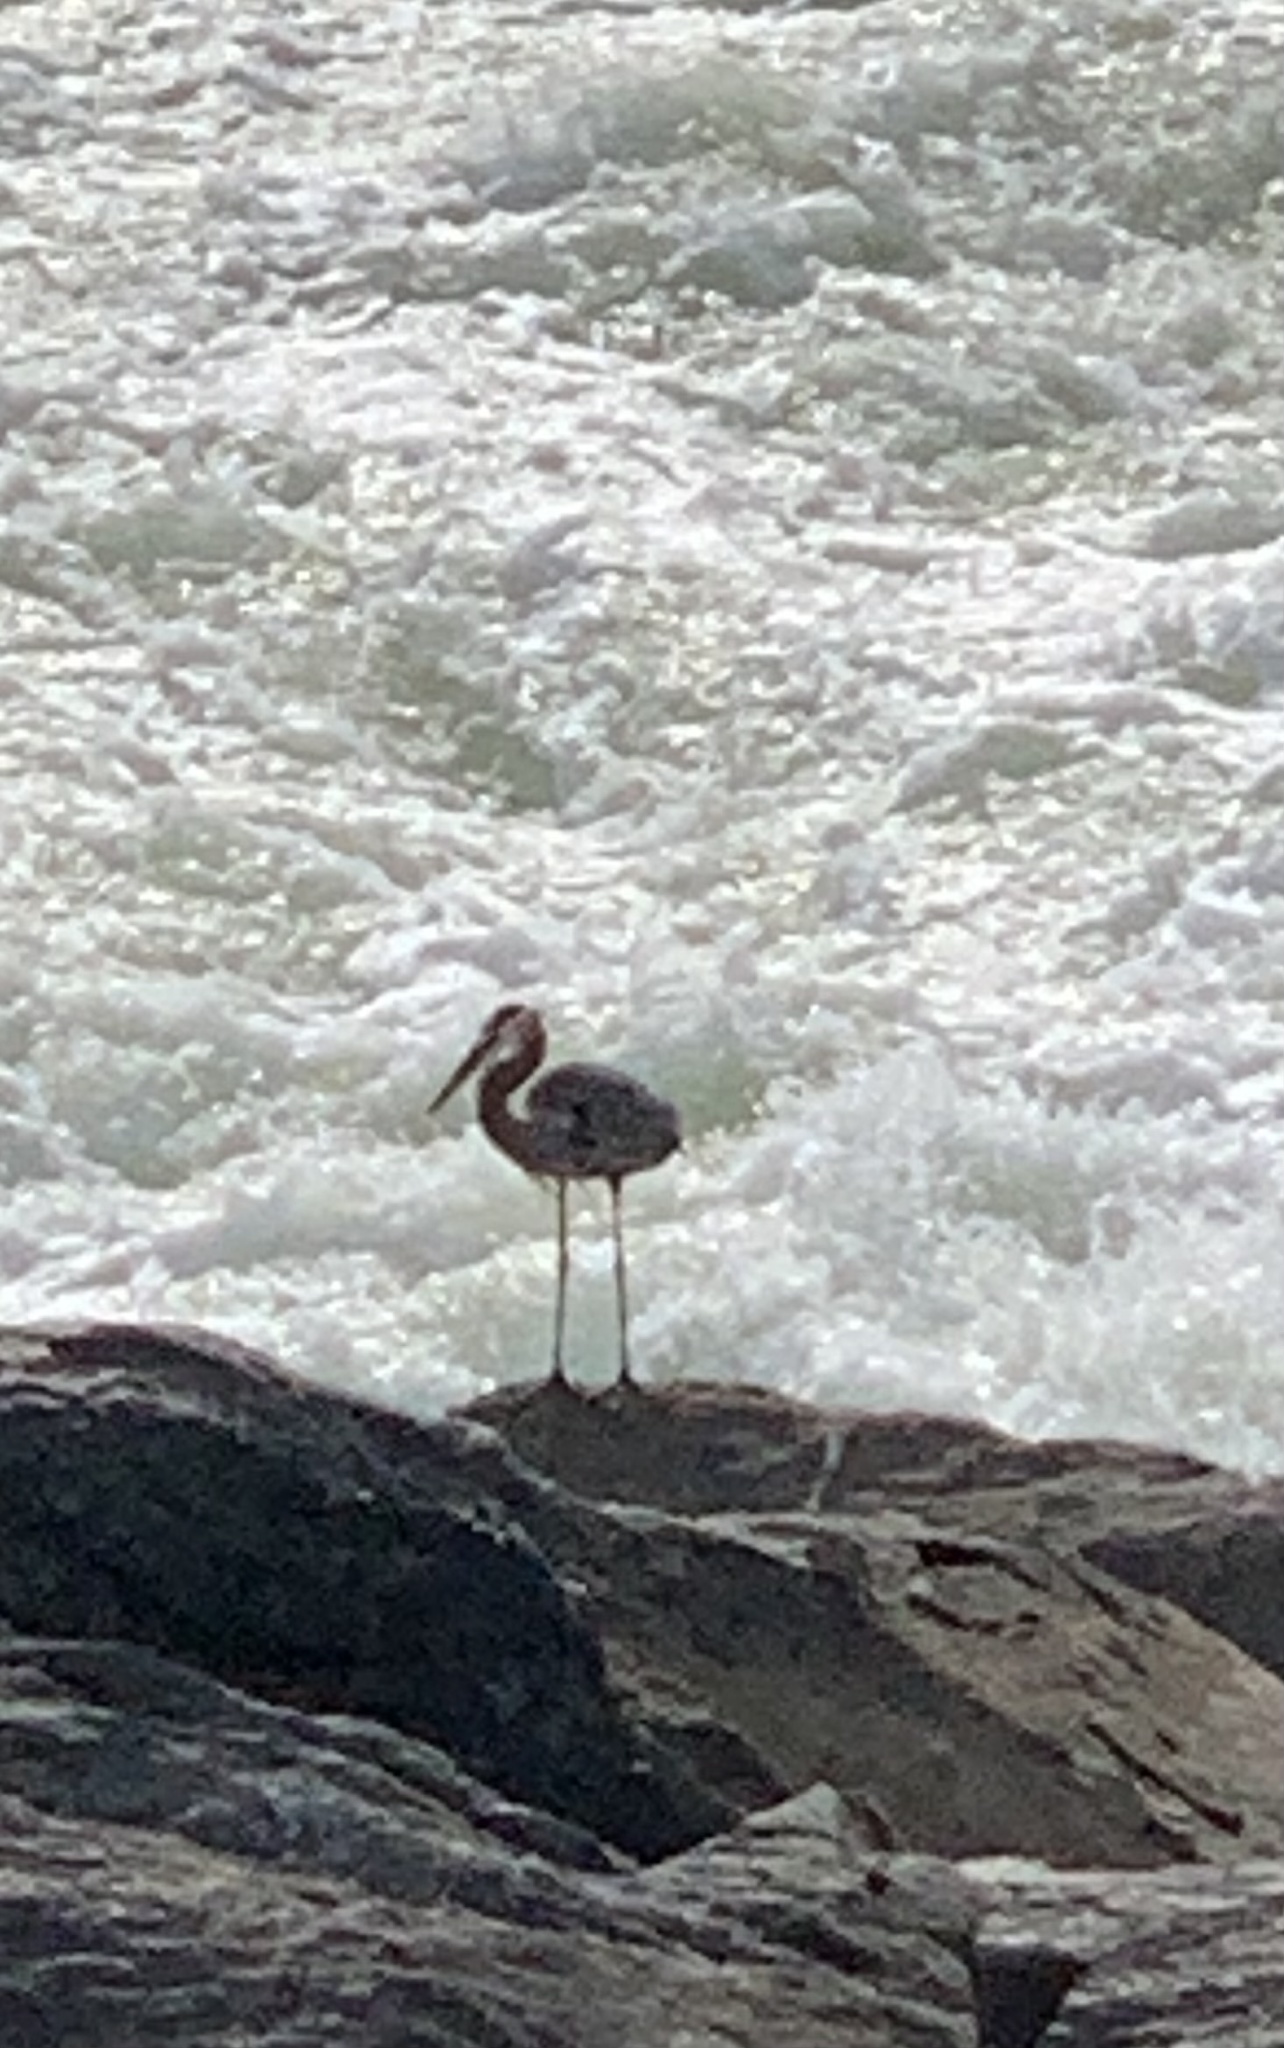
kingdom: Animalia
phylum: Chordata
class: Aves
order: Pelecaniformes
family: Ardeidae
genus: Ardea
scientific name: Ardea herodias
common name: Great blue heron
